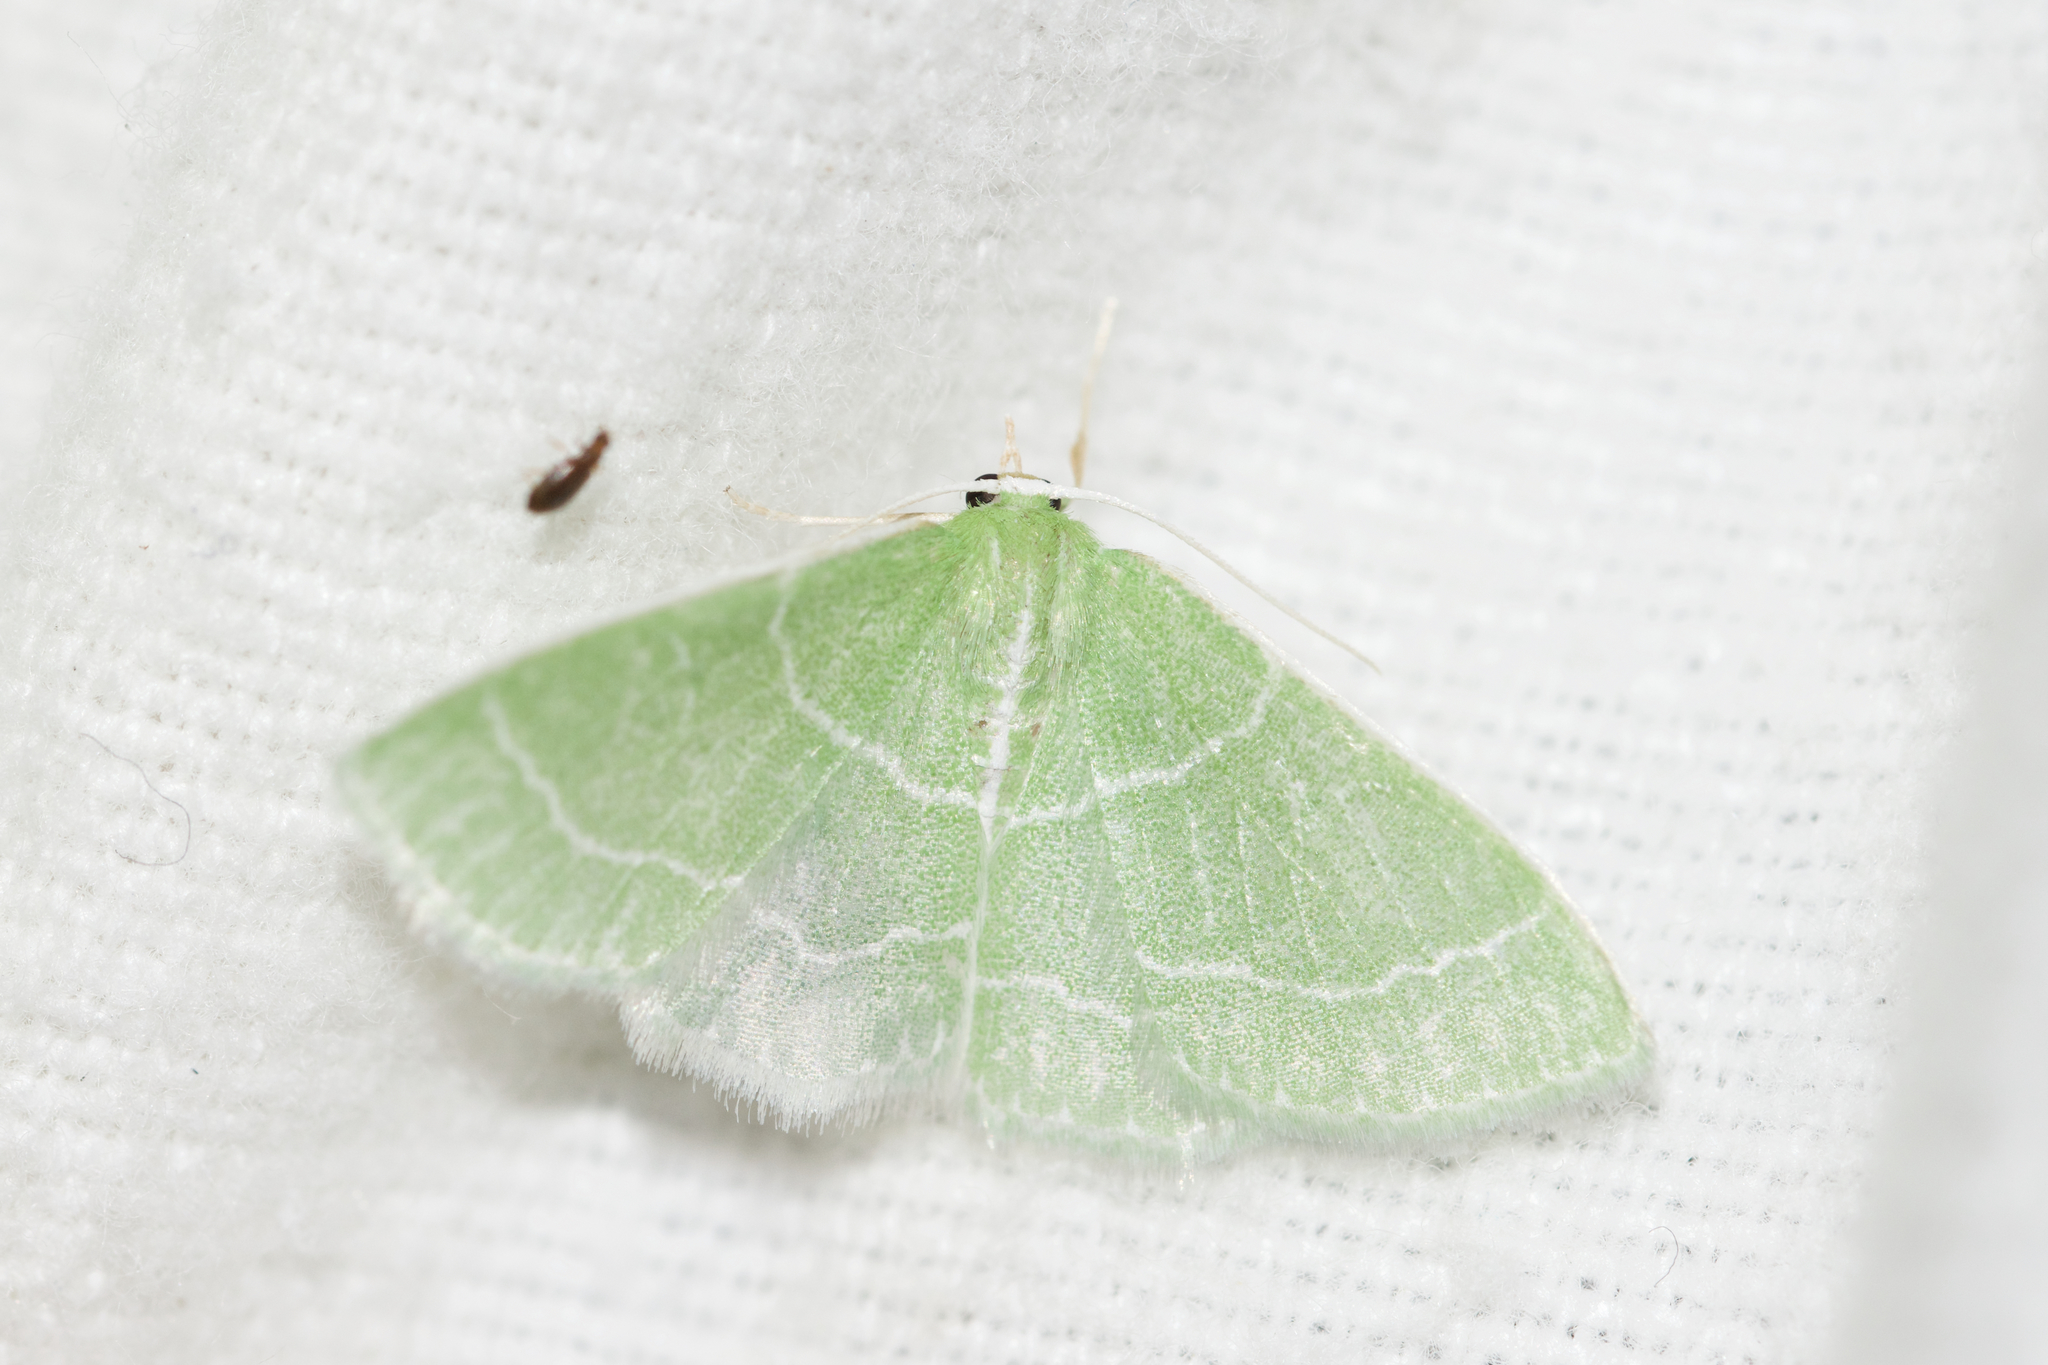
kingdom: Animalia
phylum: Arthropoda
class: Insecta
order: Lepidoptera
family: Geometridae
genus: Synchlora
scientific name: Synchlora aerata
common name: Wavy-lined emerald
